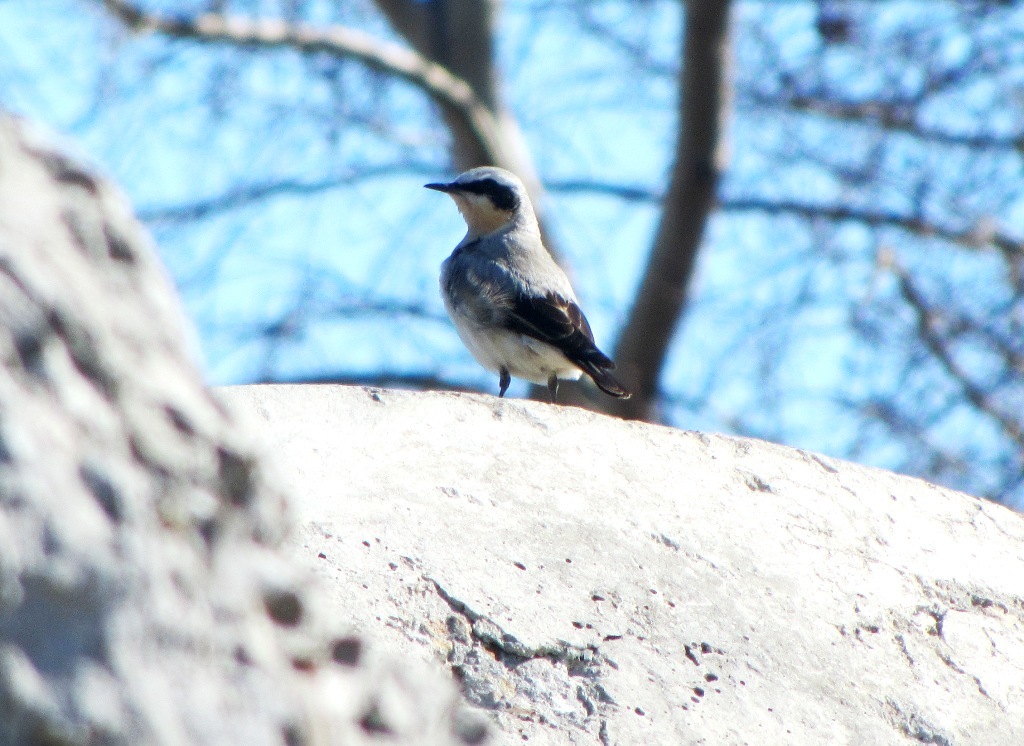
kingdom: Animalia
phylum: Chordata
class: Aves
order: Passeriformes
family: Muscicapidae
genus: Oenanthe
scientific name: Oenanthe oenanthe
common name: Northern wheatear
